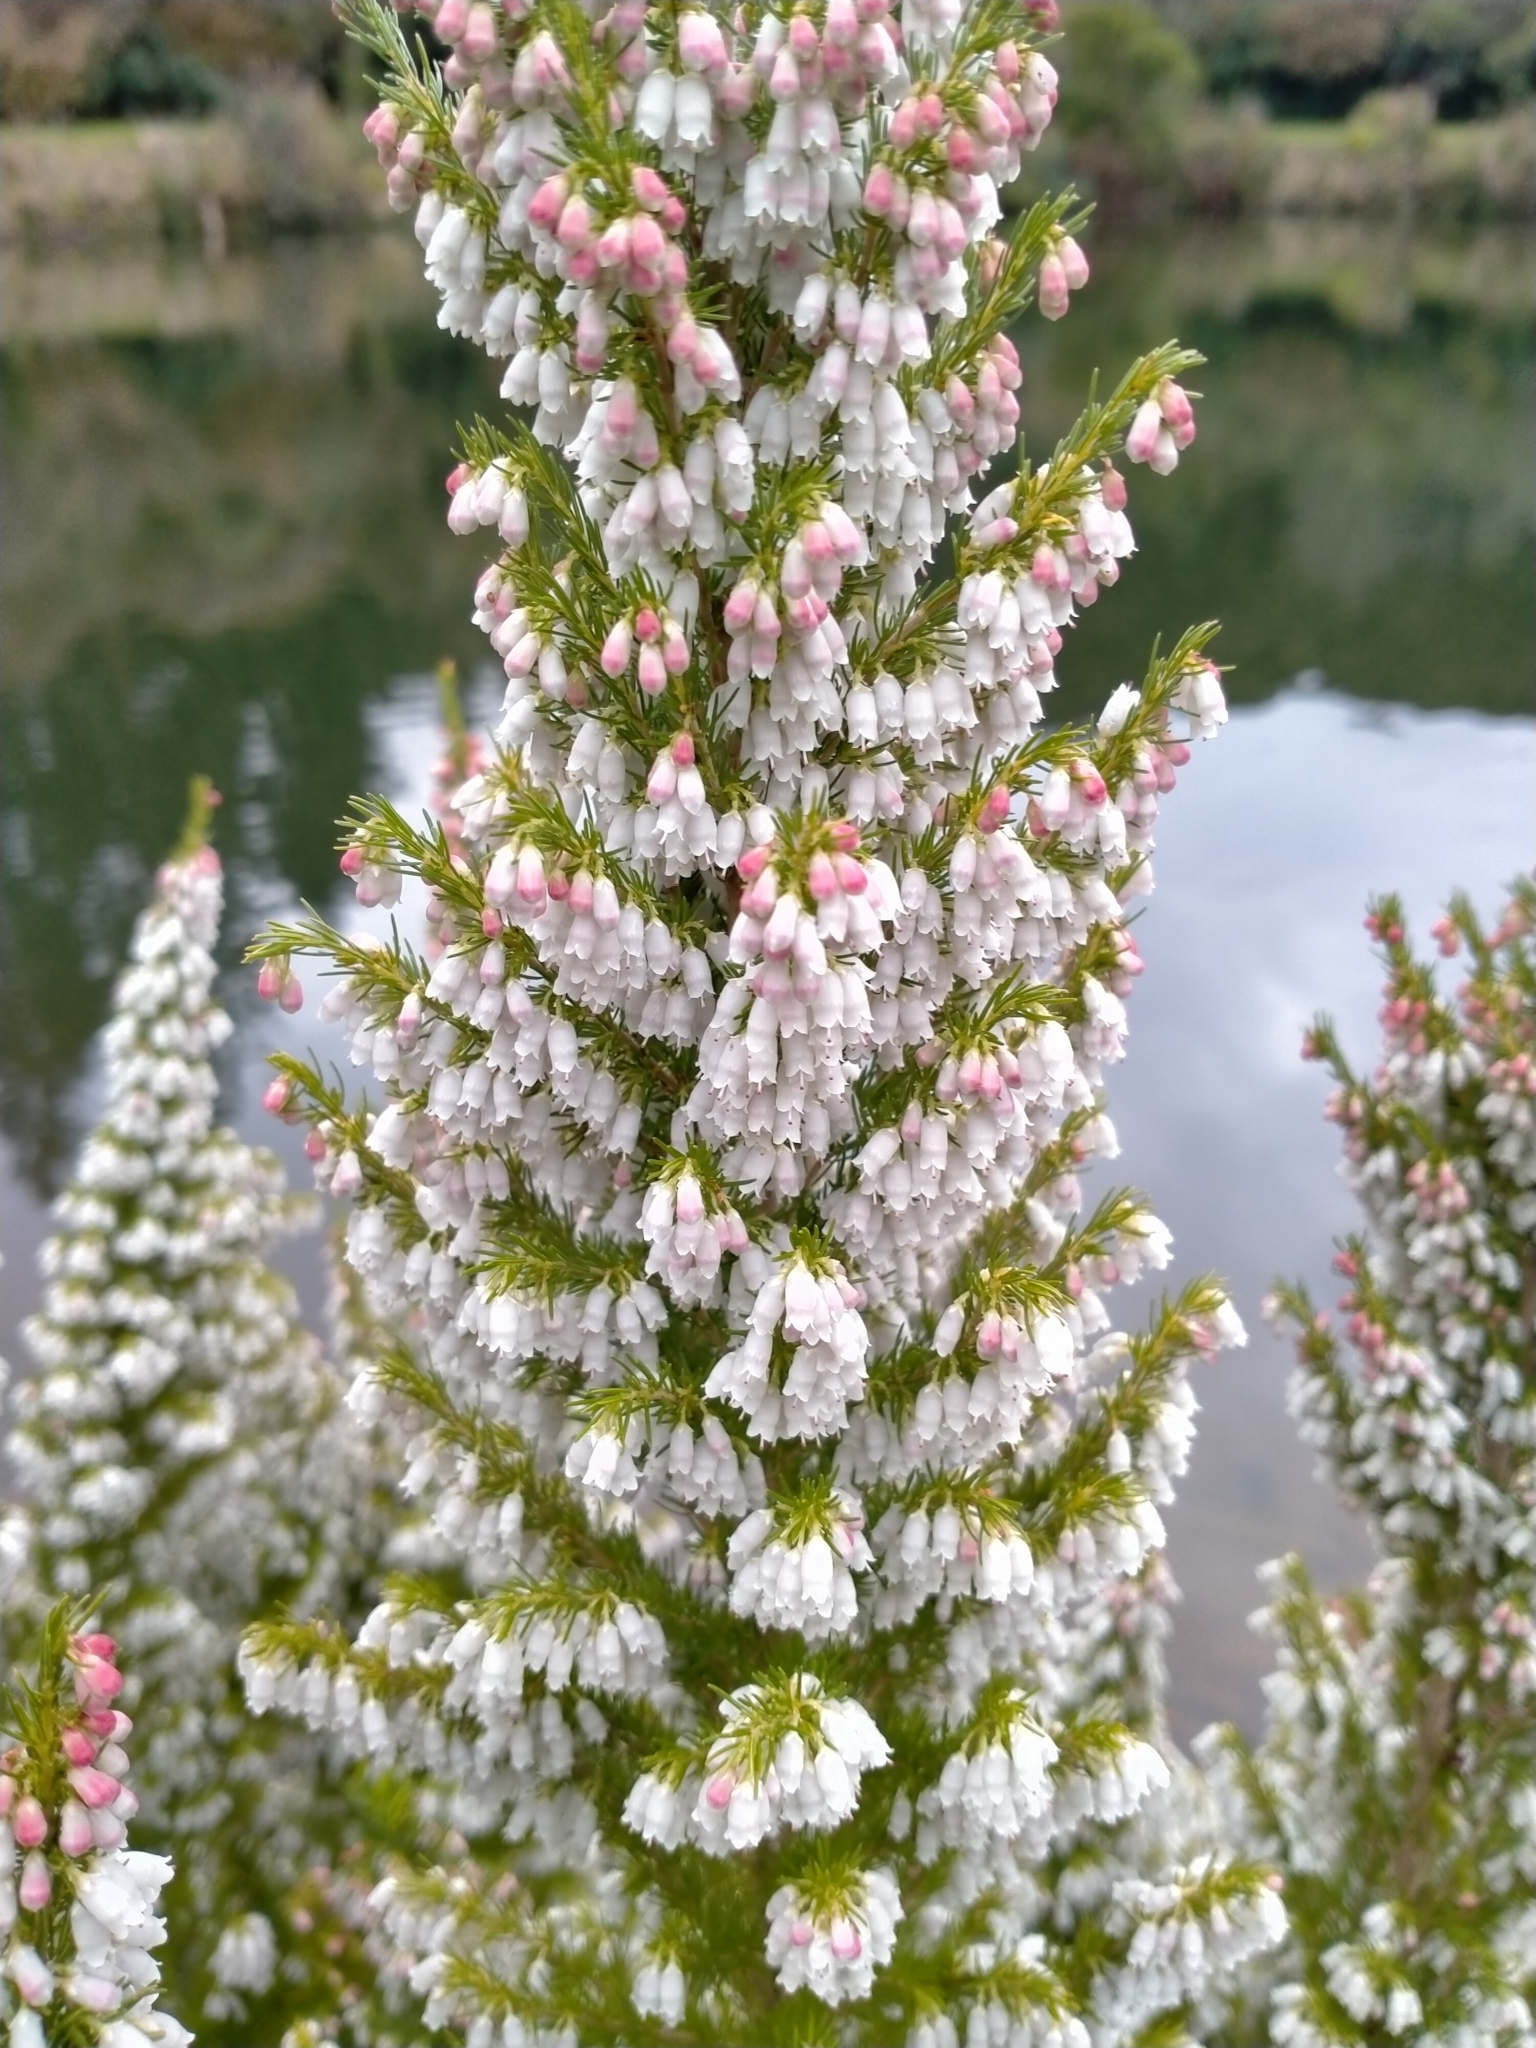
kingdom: Plantae
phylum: Tracheophyta
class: Magnoliopsida
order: Ericales
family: Ericaceae
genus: Erica
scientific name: Erica lusitanica
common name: Spanish heath
